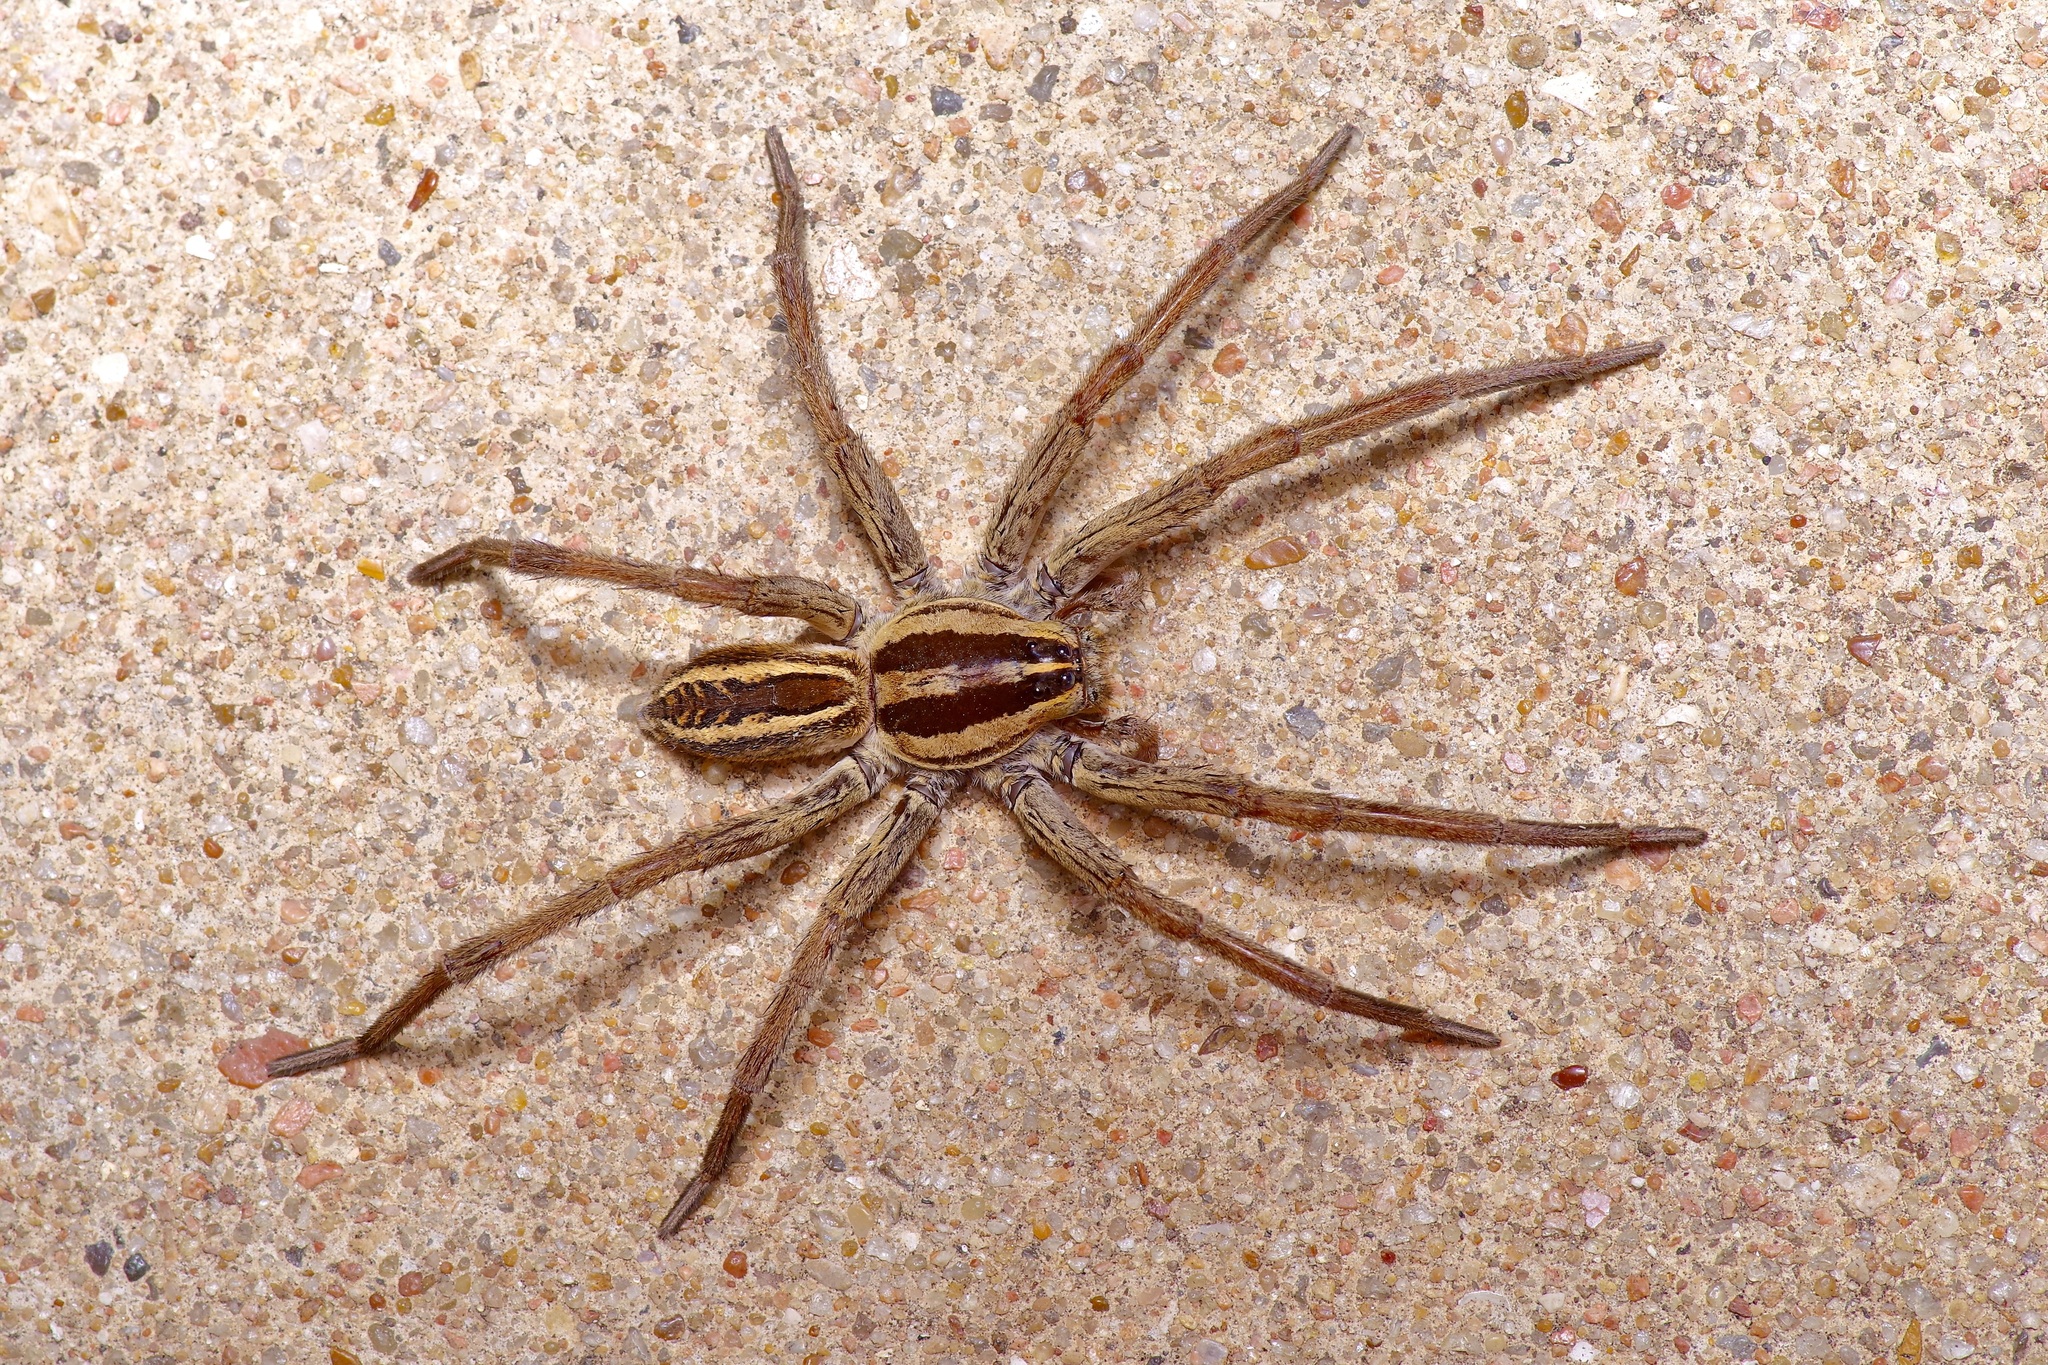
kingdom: Animalia
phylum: Arthropoda
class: Arachnida
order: Araneae
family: Lycosidae
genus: Rabidosa
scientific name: Rabidosa rabida
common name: Rabid wolf spider
